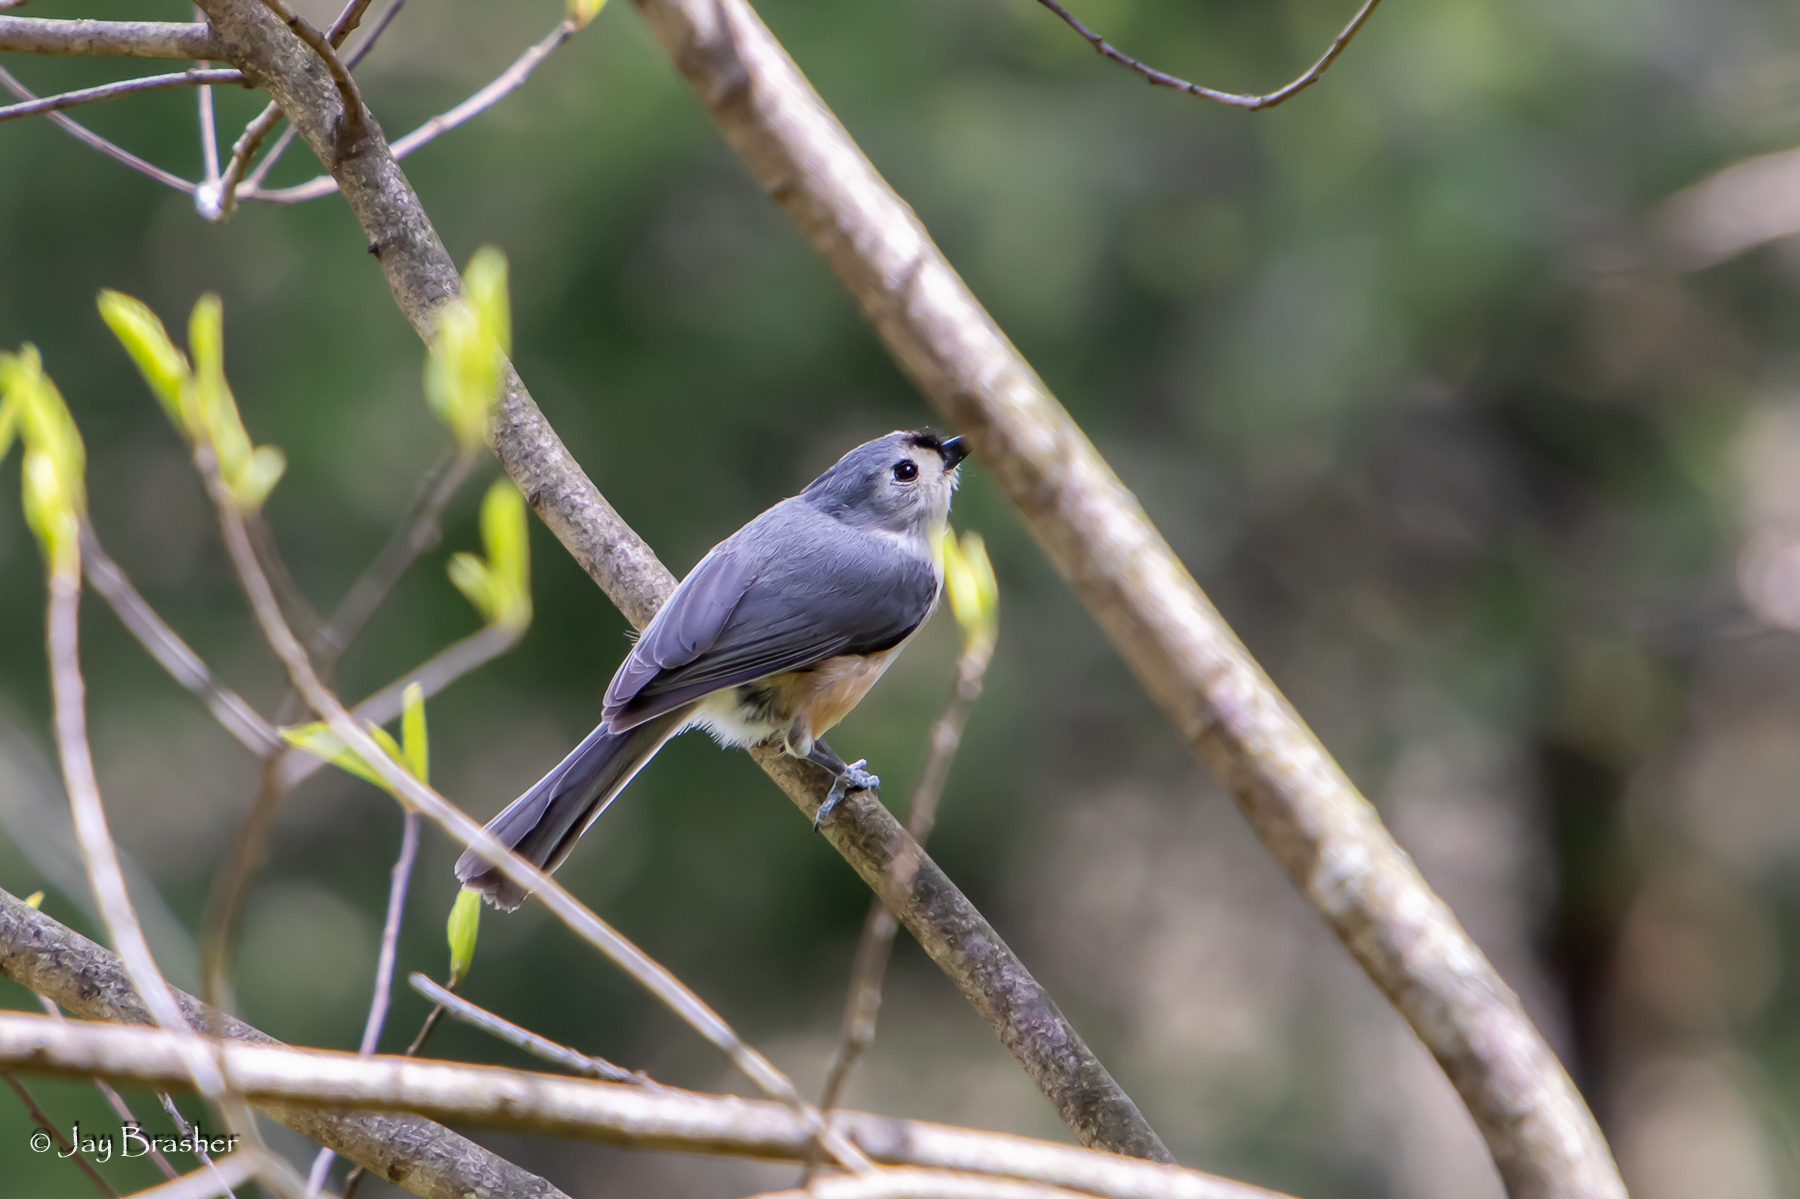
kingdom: Animalia
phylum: Chordata
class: Aves
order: Passeriformes
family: Paridae
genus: Baeolophus
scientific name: Baeolophus bicolor
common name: Tufted titmouse
